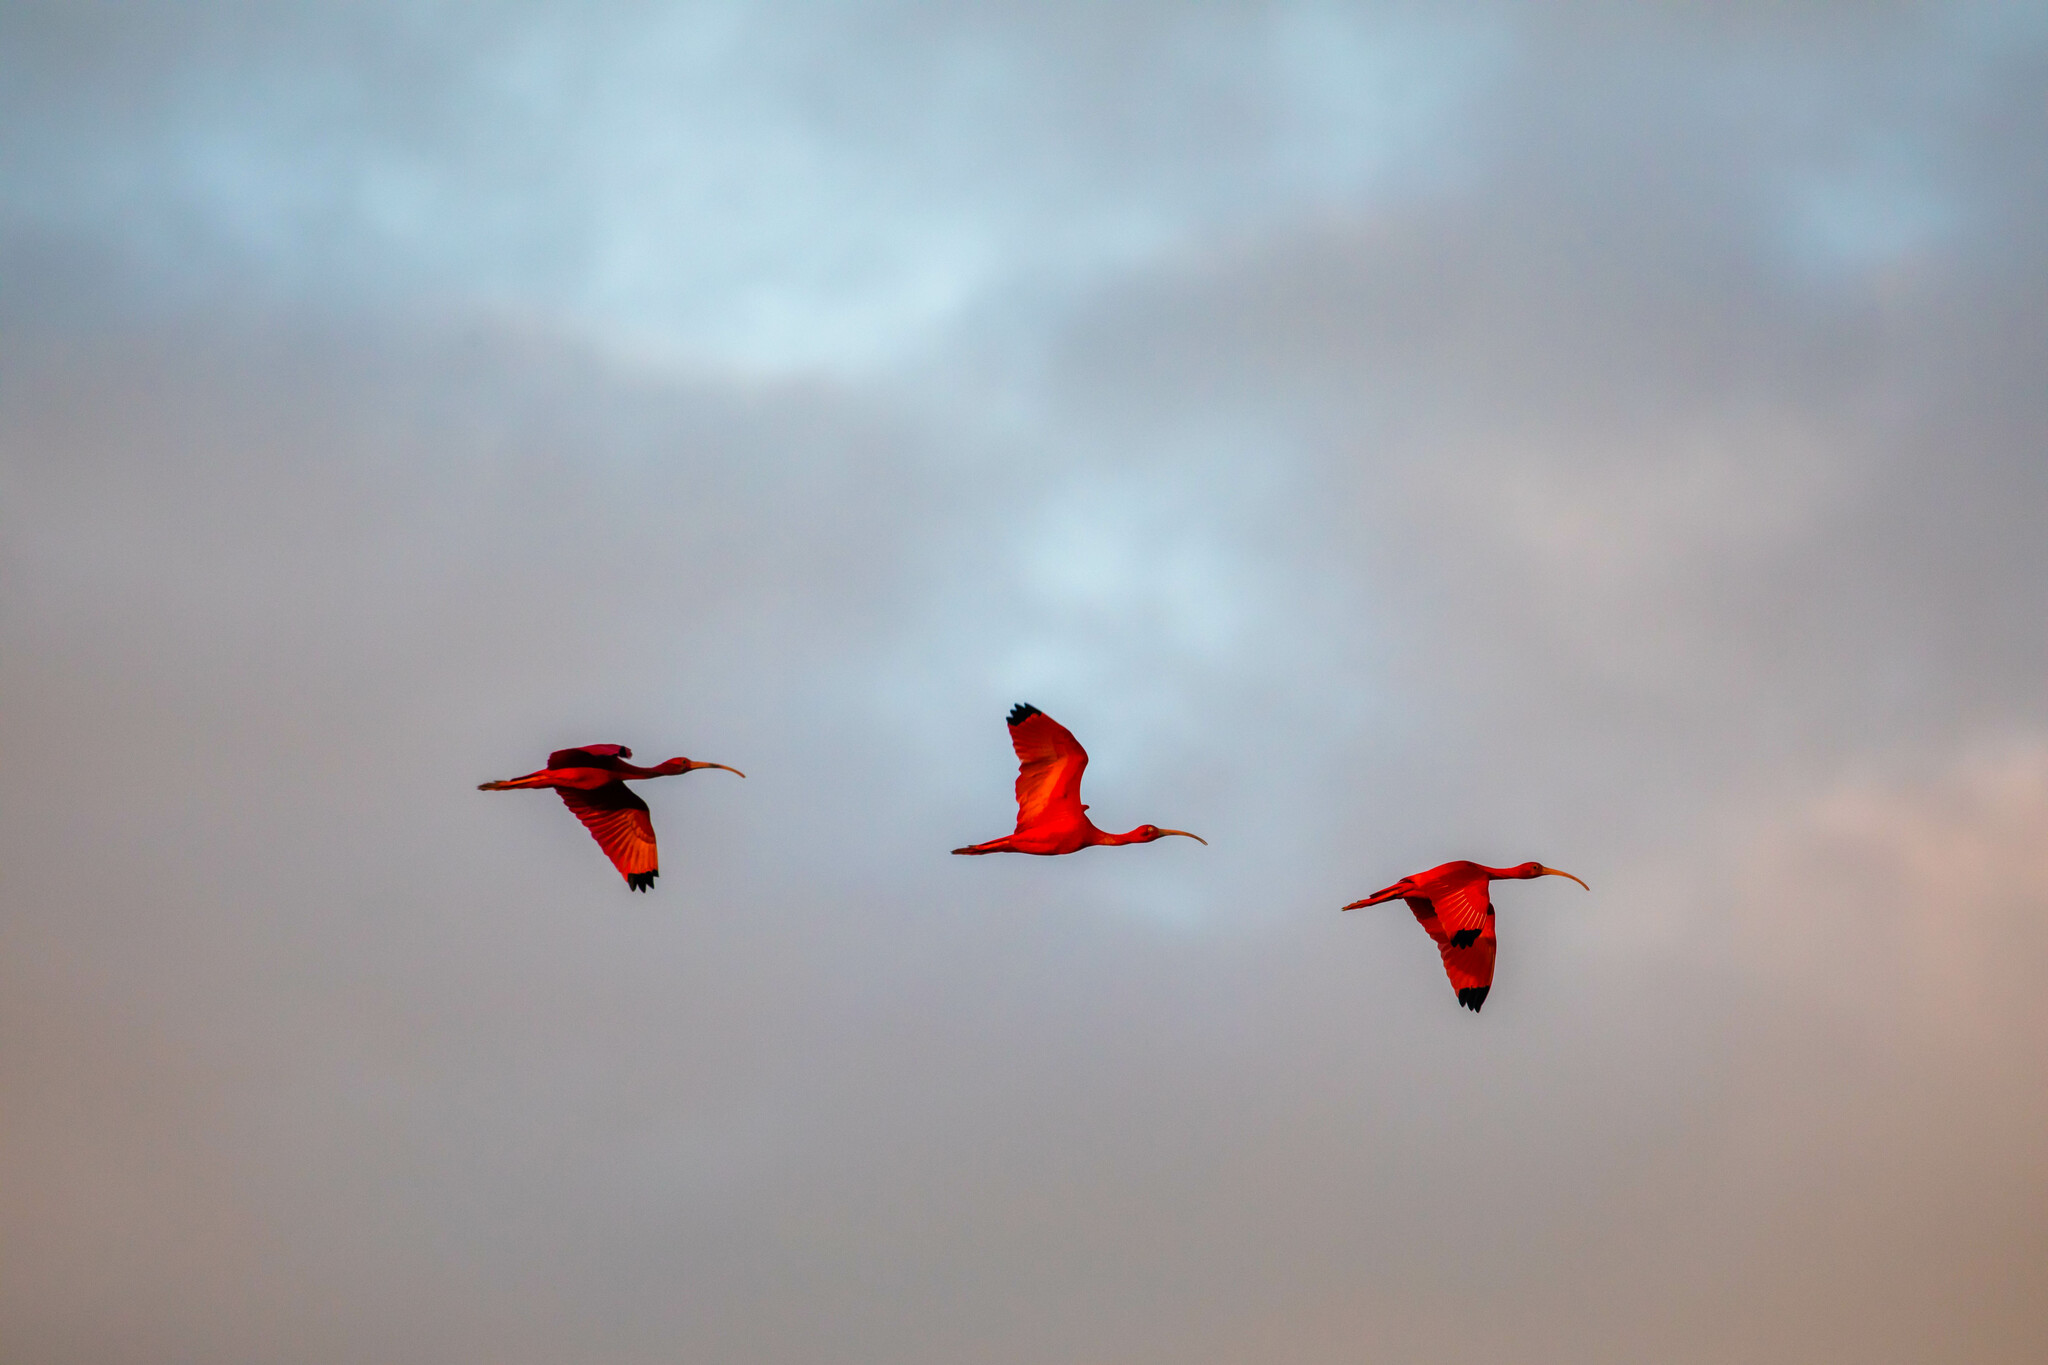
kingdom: Animalia
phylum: Chordata
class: Aves
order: Pelecaniformes
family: Threskiornithidae
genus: Eudocimus
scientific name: Eudocimus ruber
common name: Scarlet ibis
